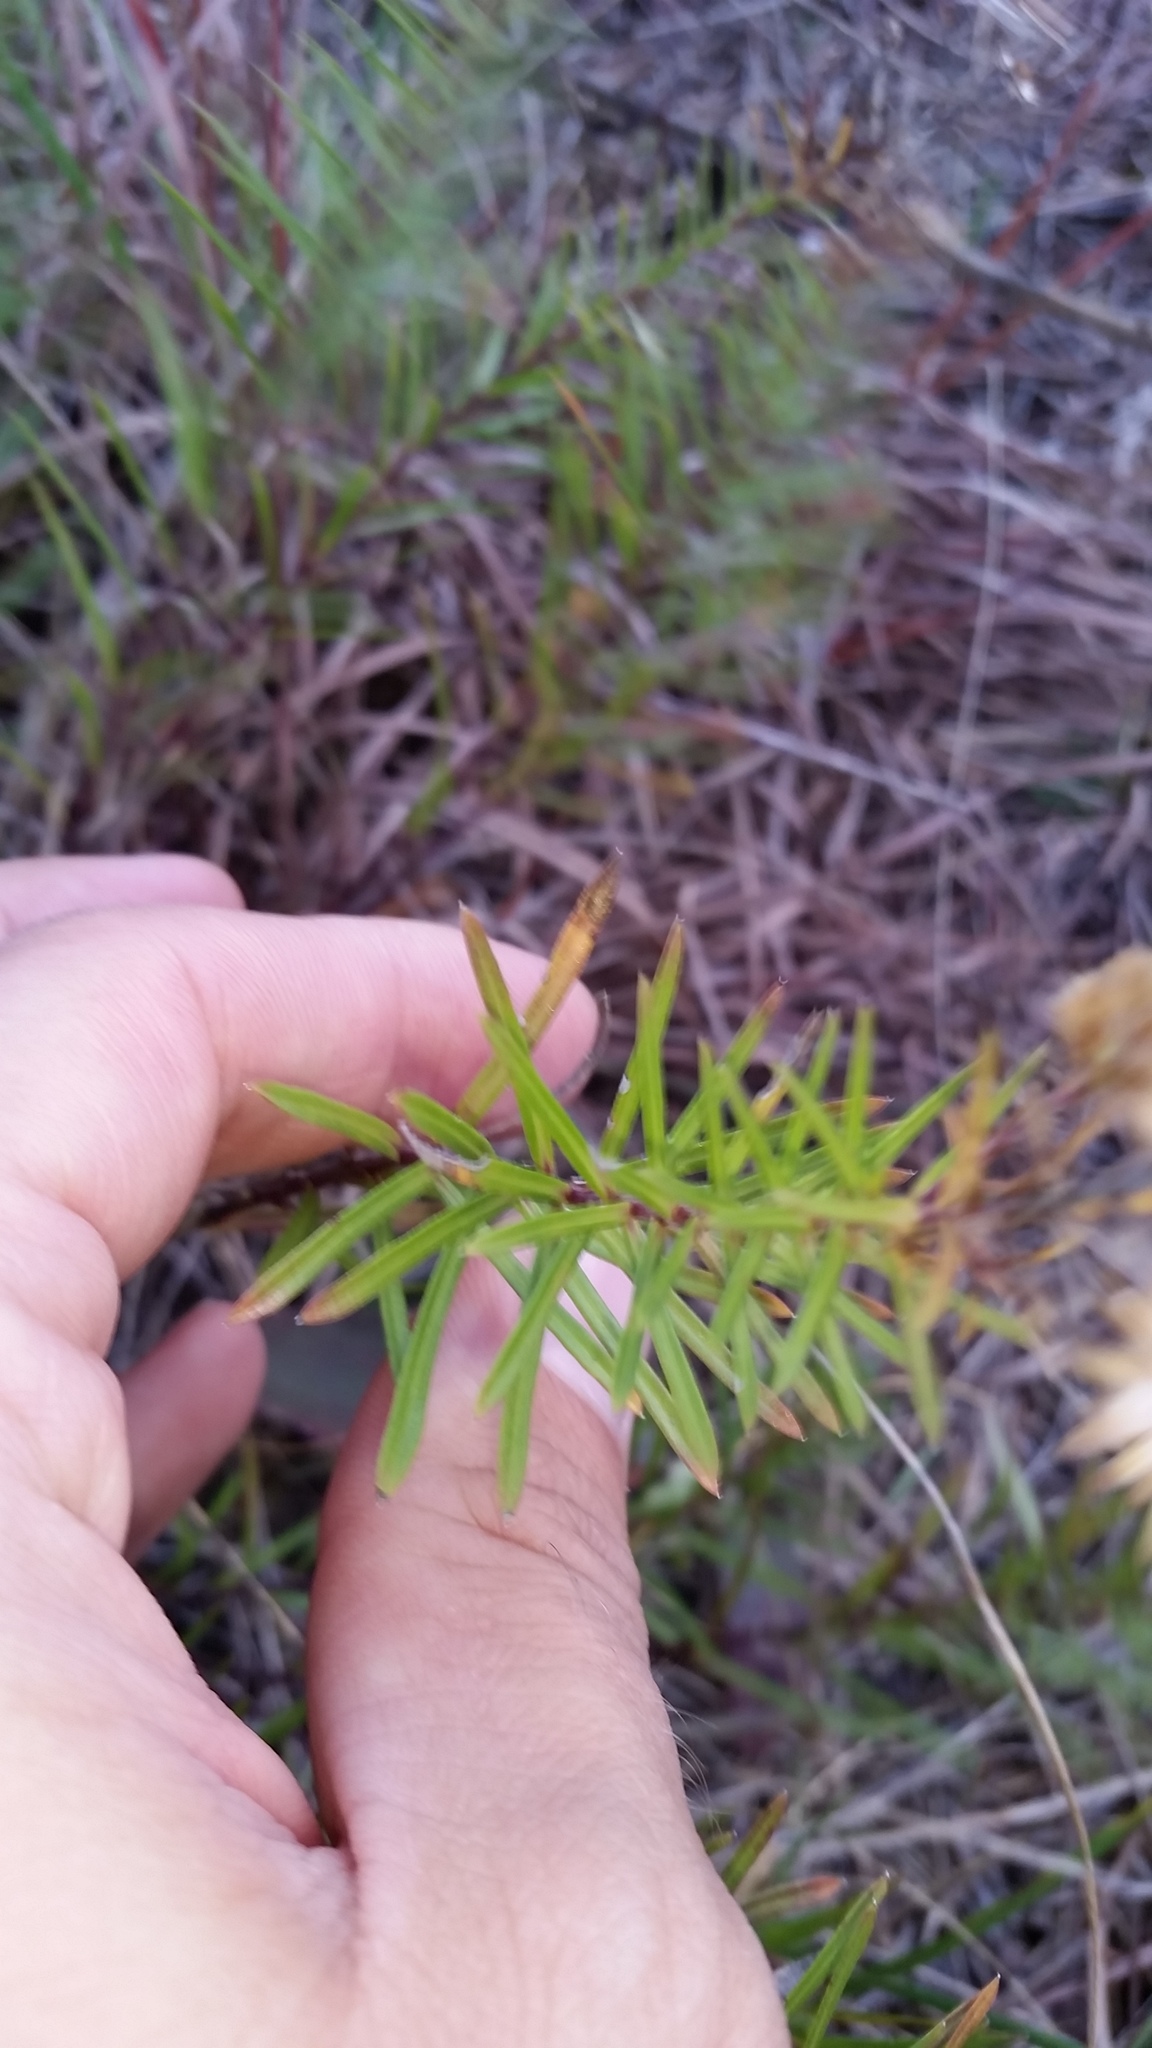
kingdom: Plantae
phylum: Tracheophyta
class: Magnoliopsida
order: Asterales
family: Asteraceae
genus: Ionactis
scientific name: Ionactis linariifolia
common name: Flax-leaf aster
